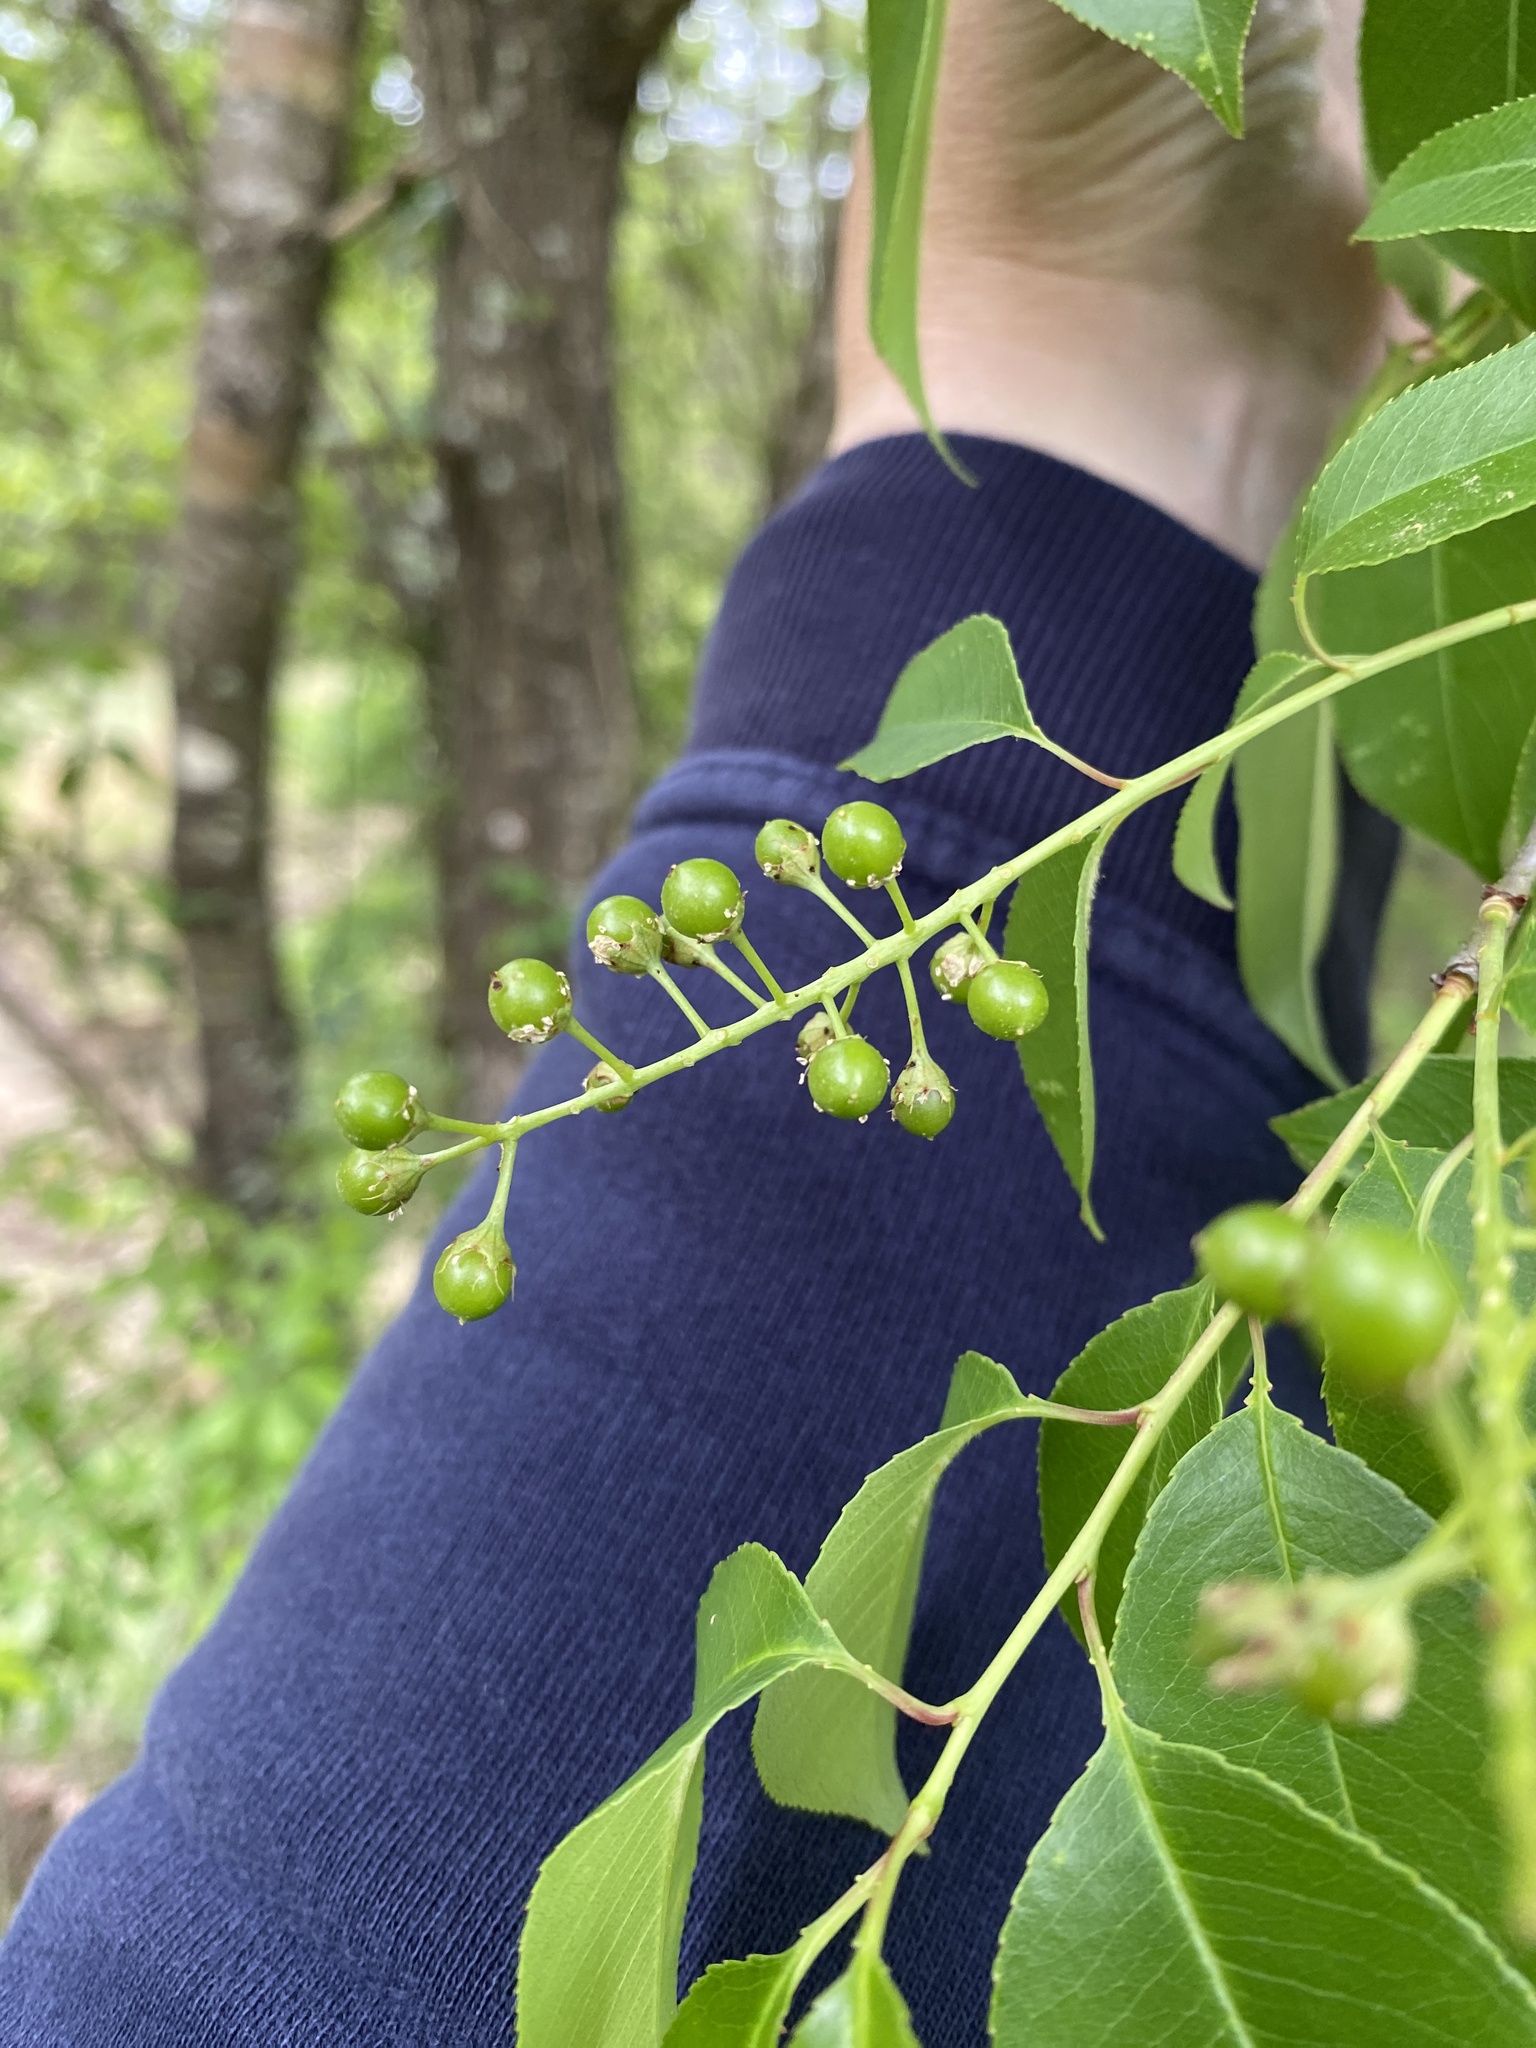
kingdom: Plantae
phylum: Tracheophyta
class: Magnoliopsida
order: Rosales
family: Rosaceae
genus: Prunus
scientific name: Prunus serotina
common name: Black cherry
